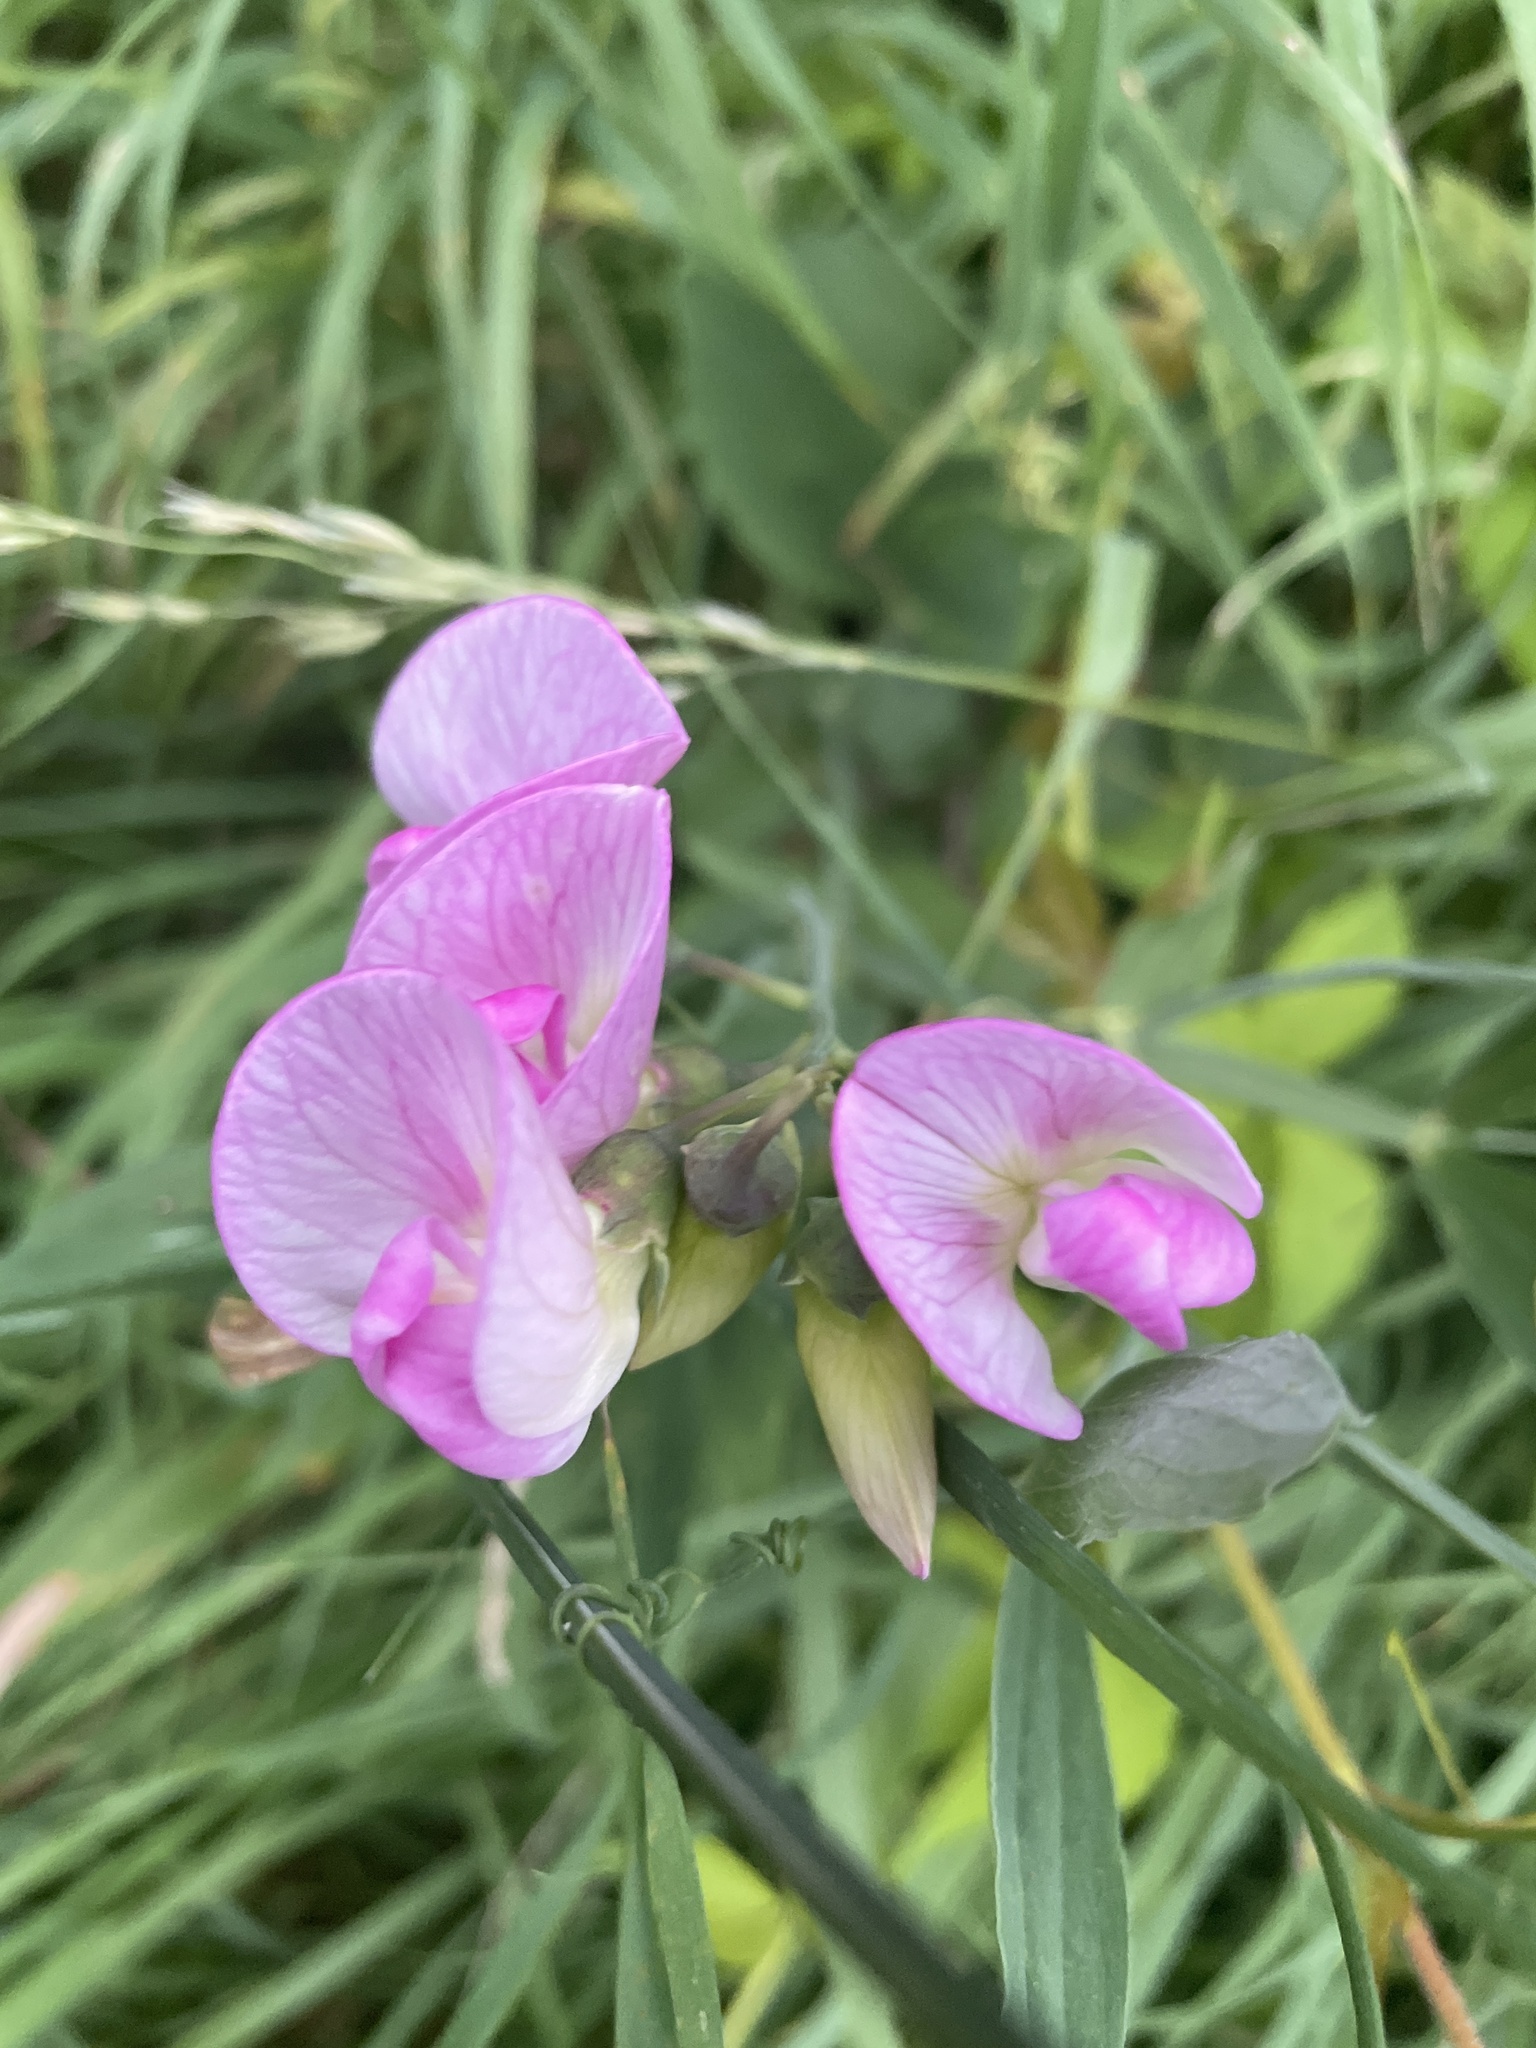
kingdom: Plantae
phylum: Tracheophyta
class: Magnoliopsida
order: Fabales
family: Fabaceae
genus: Lathyrus
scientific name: Lathyrus latifolius
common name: Perennial pea
